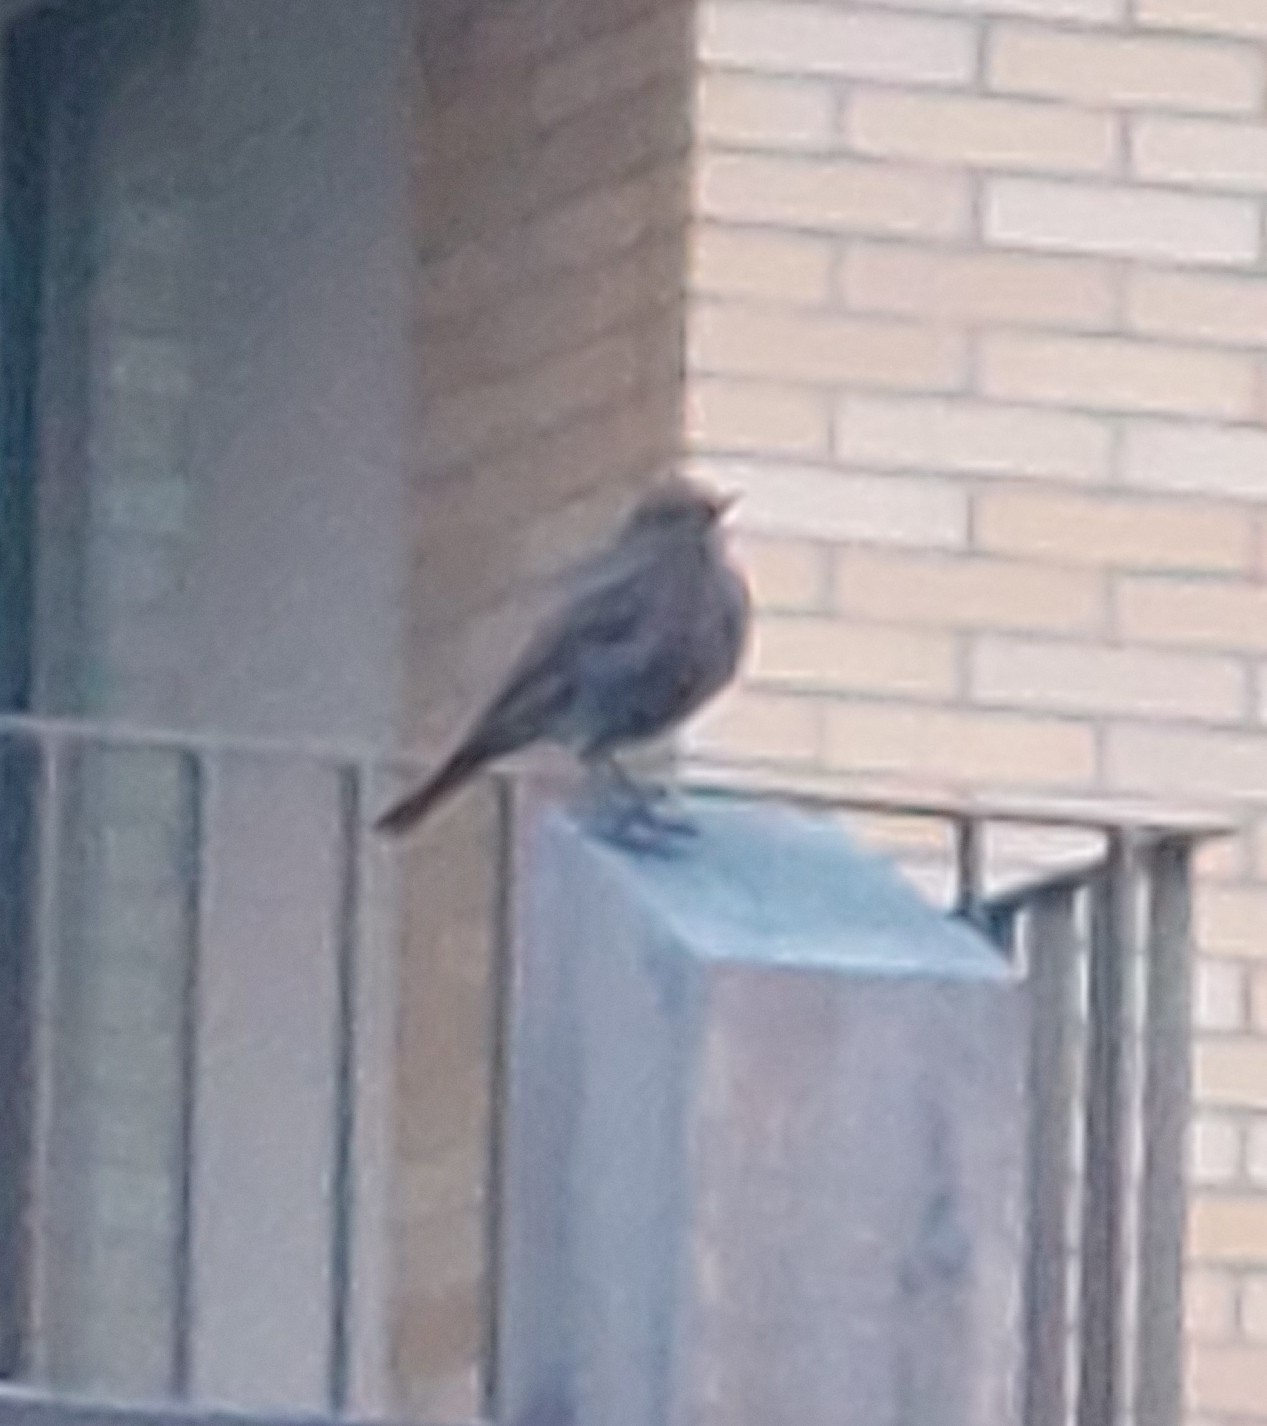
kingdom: Animalia
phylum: Chordata
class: Aves
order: Passeriformes
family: Muscicapidae
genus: Phoenicurus
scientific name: Phoenicurus ochruros
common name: Black redstart
